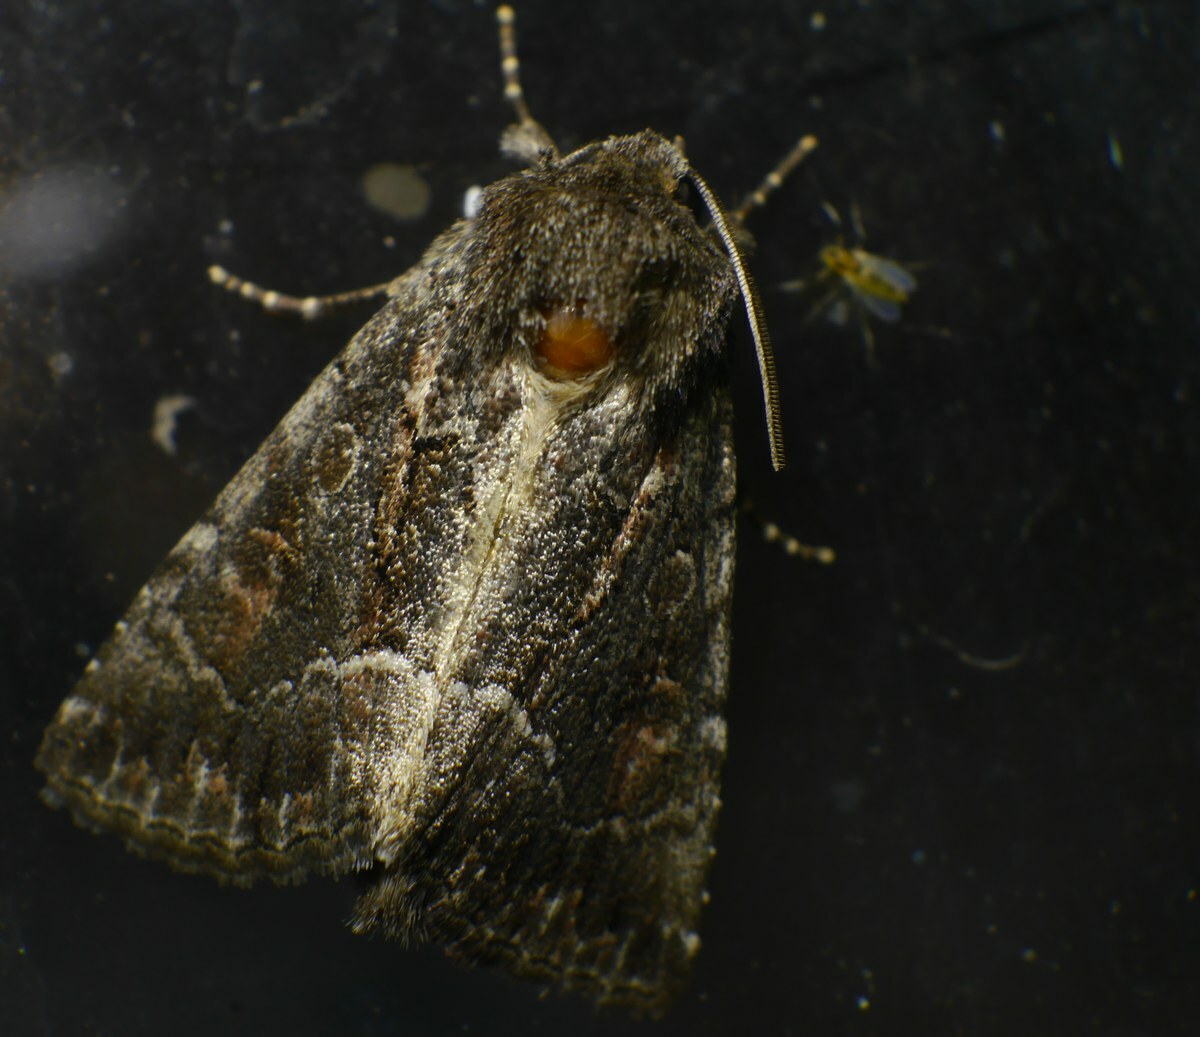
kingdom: Animalia
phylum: Arthropoda
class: Insecta
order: Lepidoptera
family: Noctuidae
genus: Thalpophila
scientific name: Thalpophila matura
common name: Straw underwing
